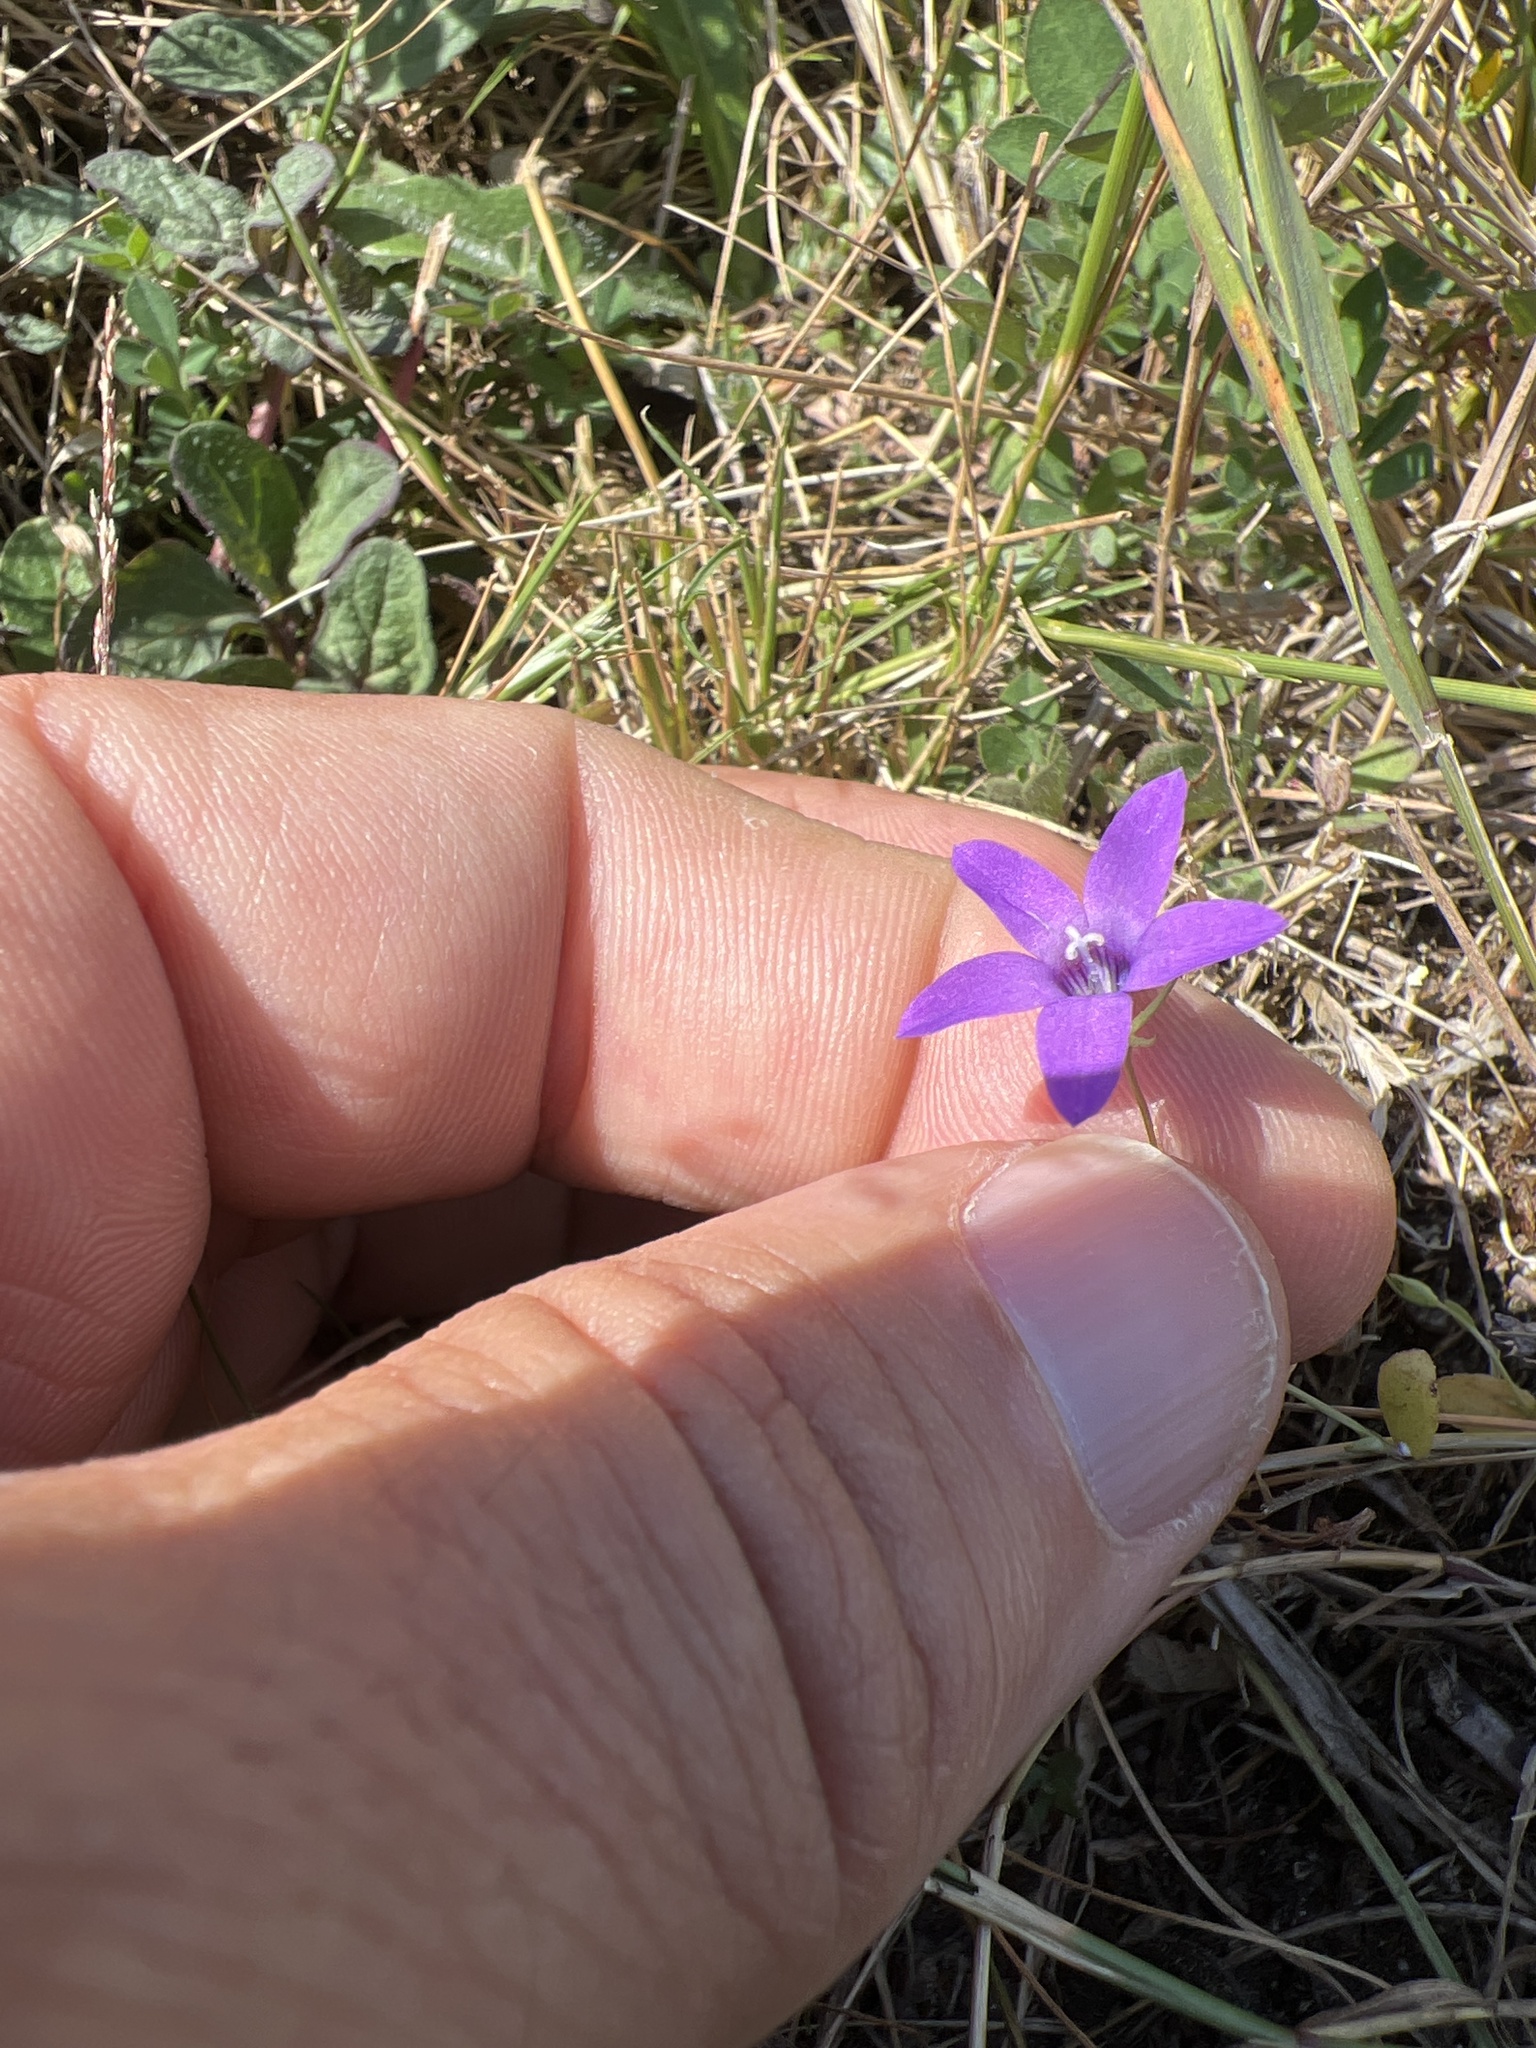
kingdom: Plantae
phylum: Tracheophyta
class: Magnoliopsida
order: Asterales
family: Campanulaceae
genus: Campanula
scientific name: Campanula lusitanica
